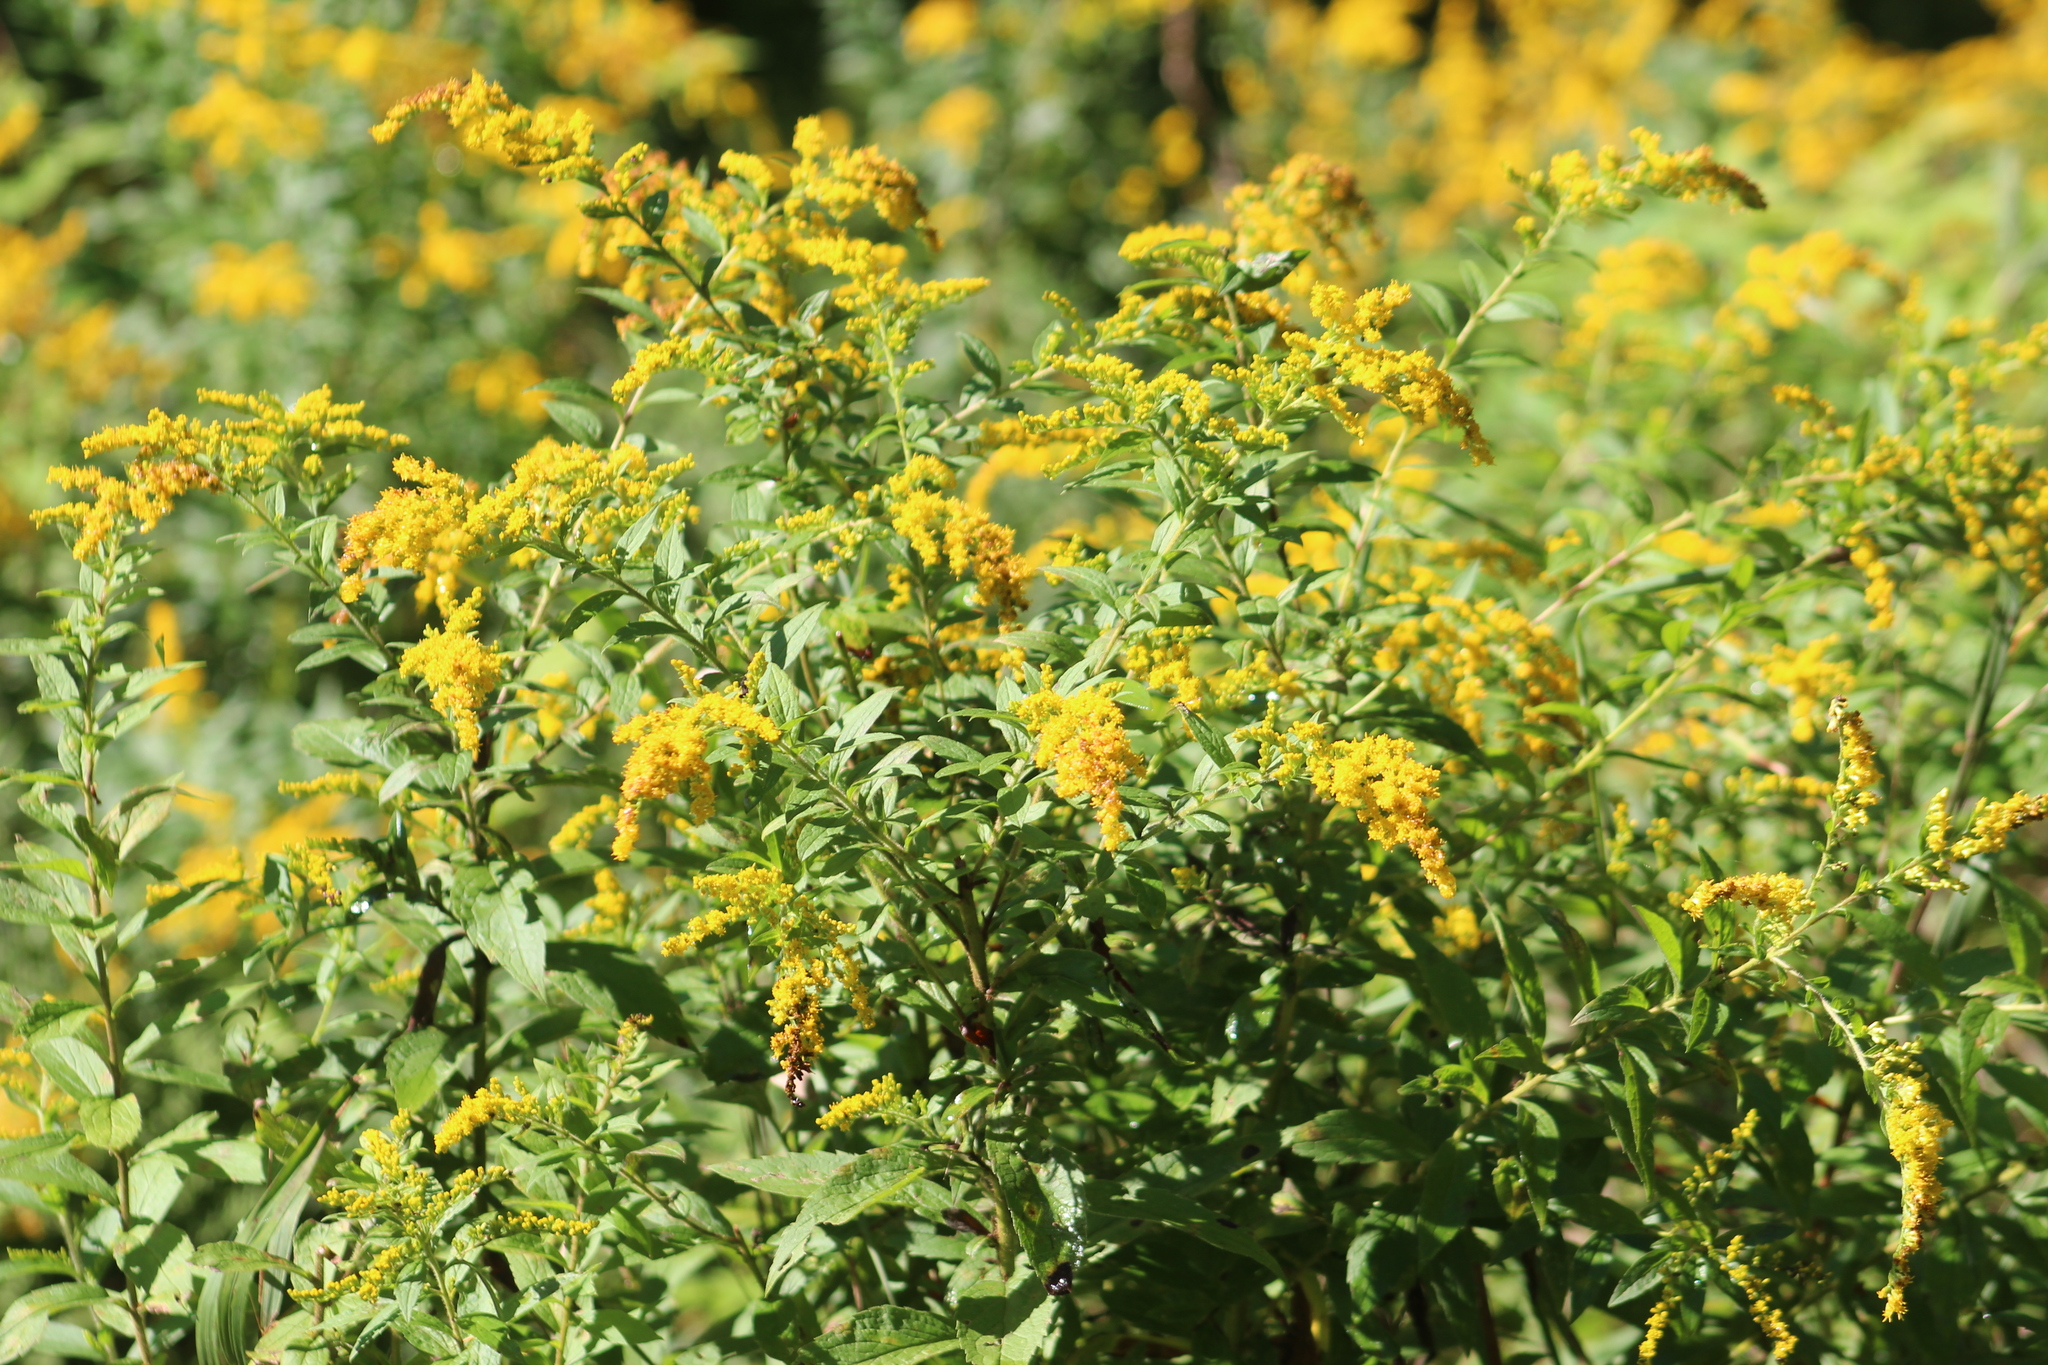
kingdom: Plantae
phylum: Tracheophyta
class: Magnoliopsida
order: Asterales
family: Asteraceae
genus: Solidago
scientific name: Solidago rugosa
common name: Rough-stemmed goldenrod
